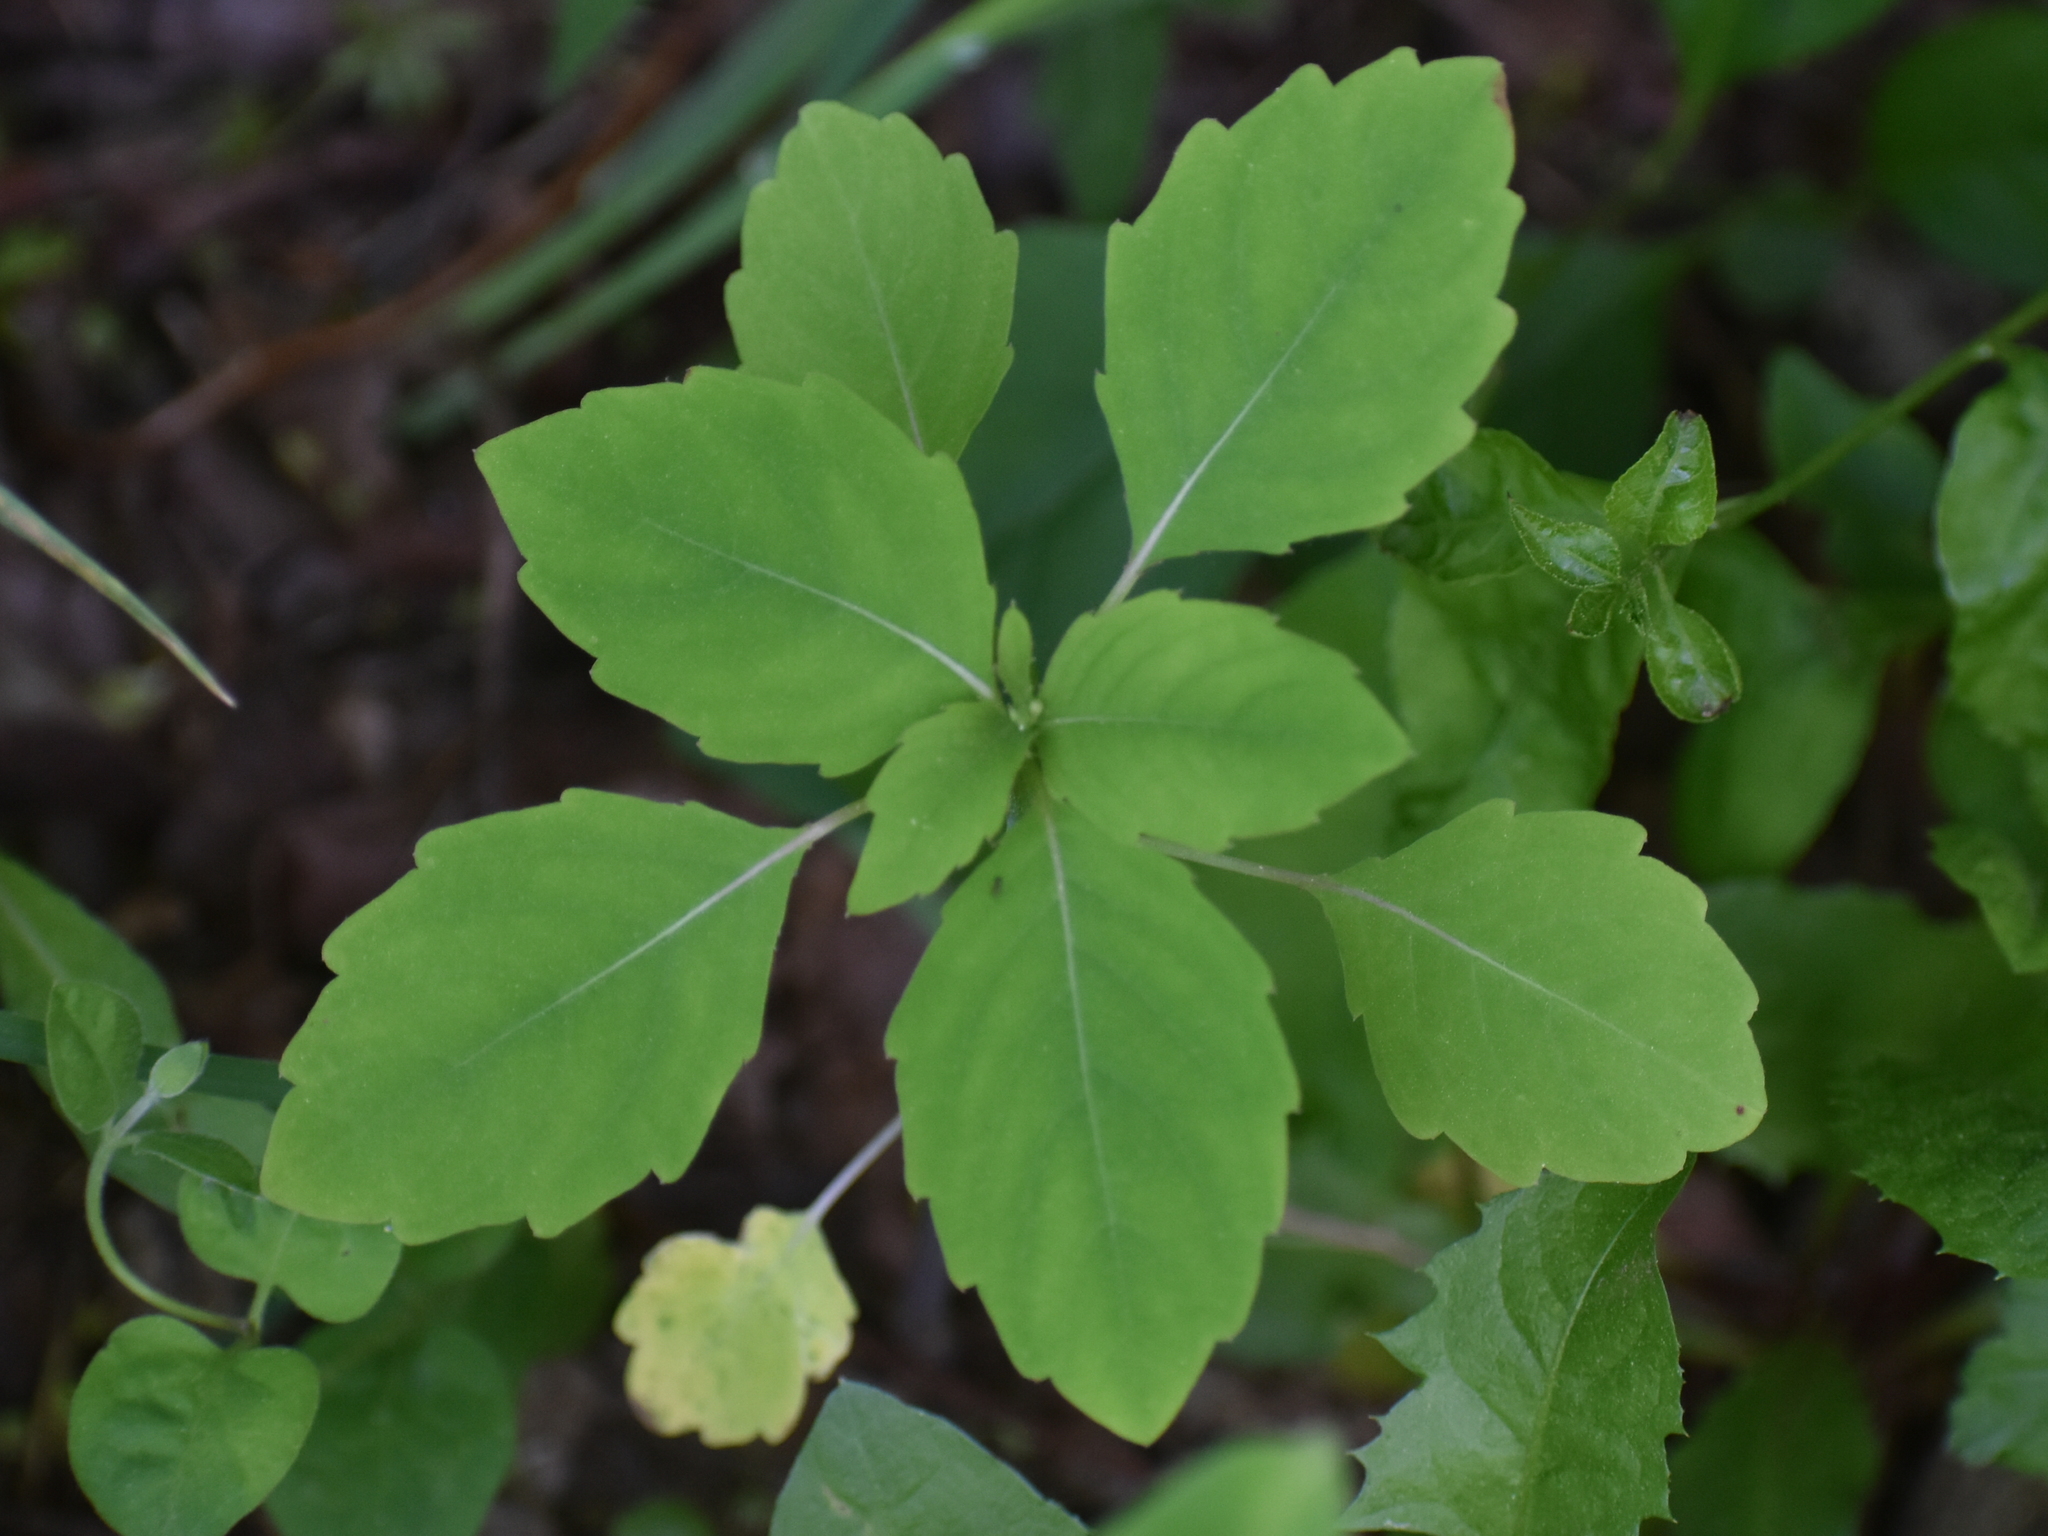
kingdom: Plantae
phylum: Tracheophyta
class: Magnoliopsida
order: Ericales
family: Balsaminaceae
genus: Impatiens
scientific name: Impatiens capensis
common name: Orange balsam
